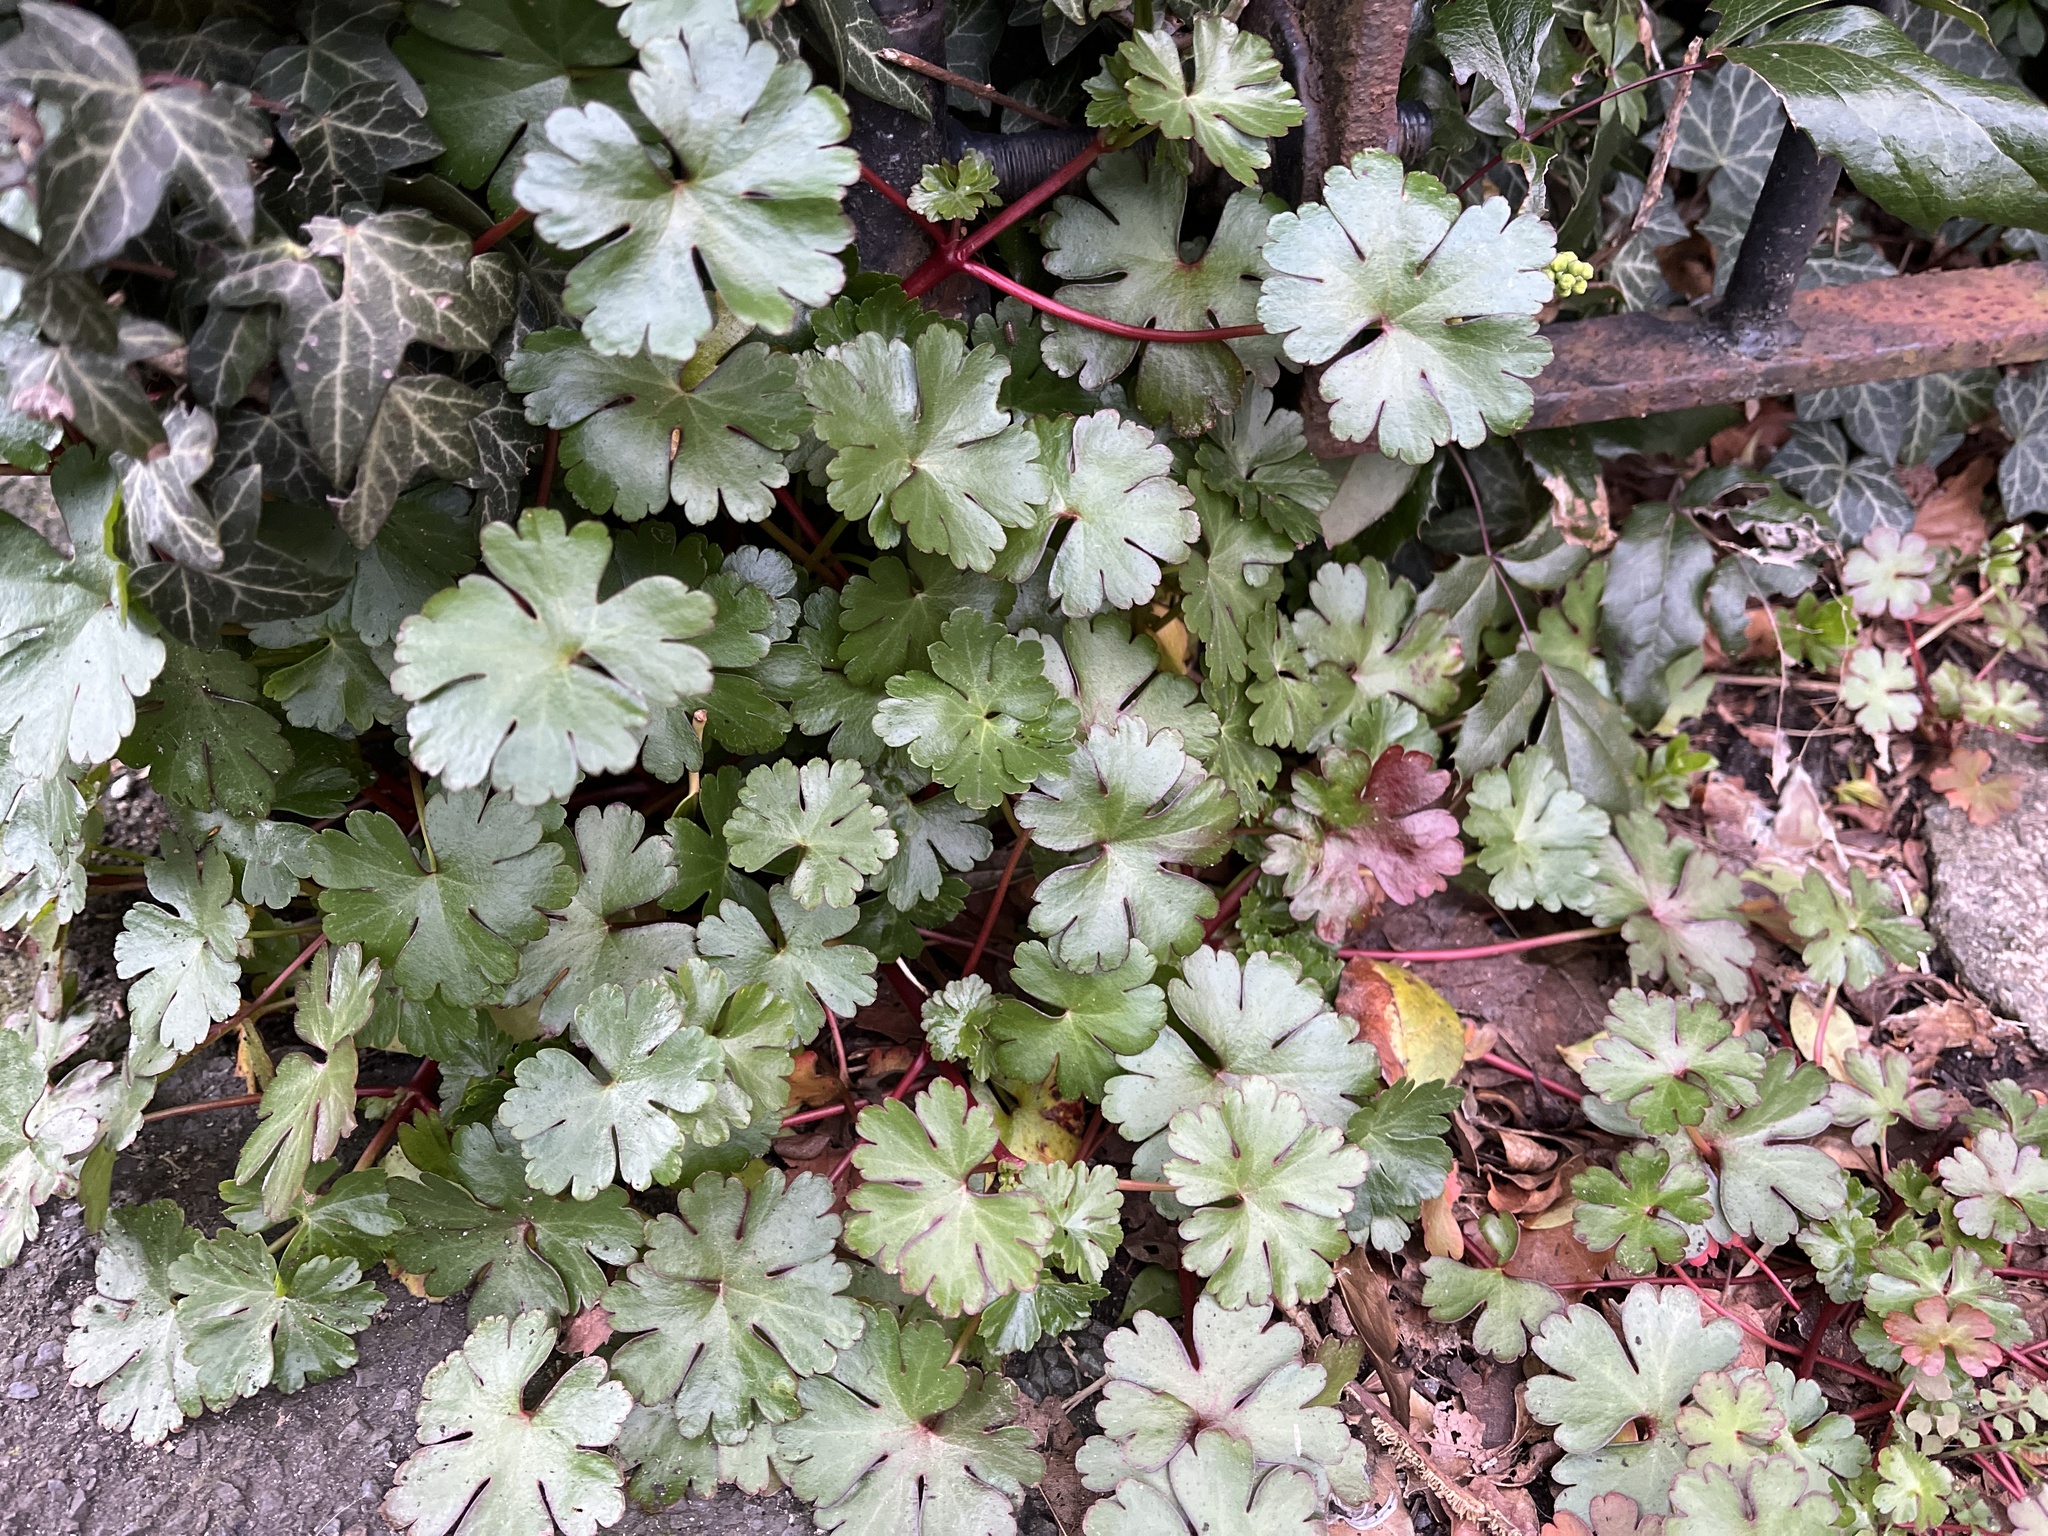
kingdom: Plantae
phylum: Tracheophyta
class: Magnoliopsida
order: Geraniales
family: Geraniaceae
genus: Geranium
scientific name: Geranium lucidum
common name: Shining crane's-bill
